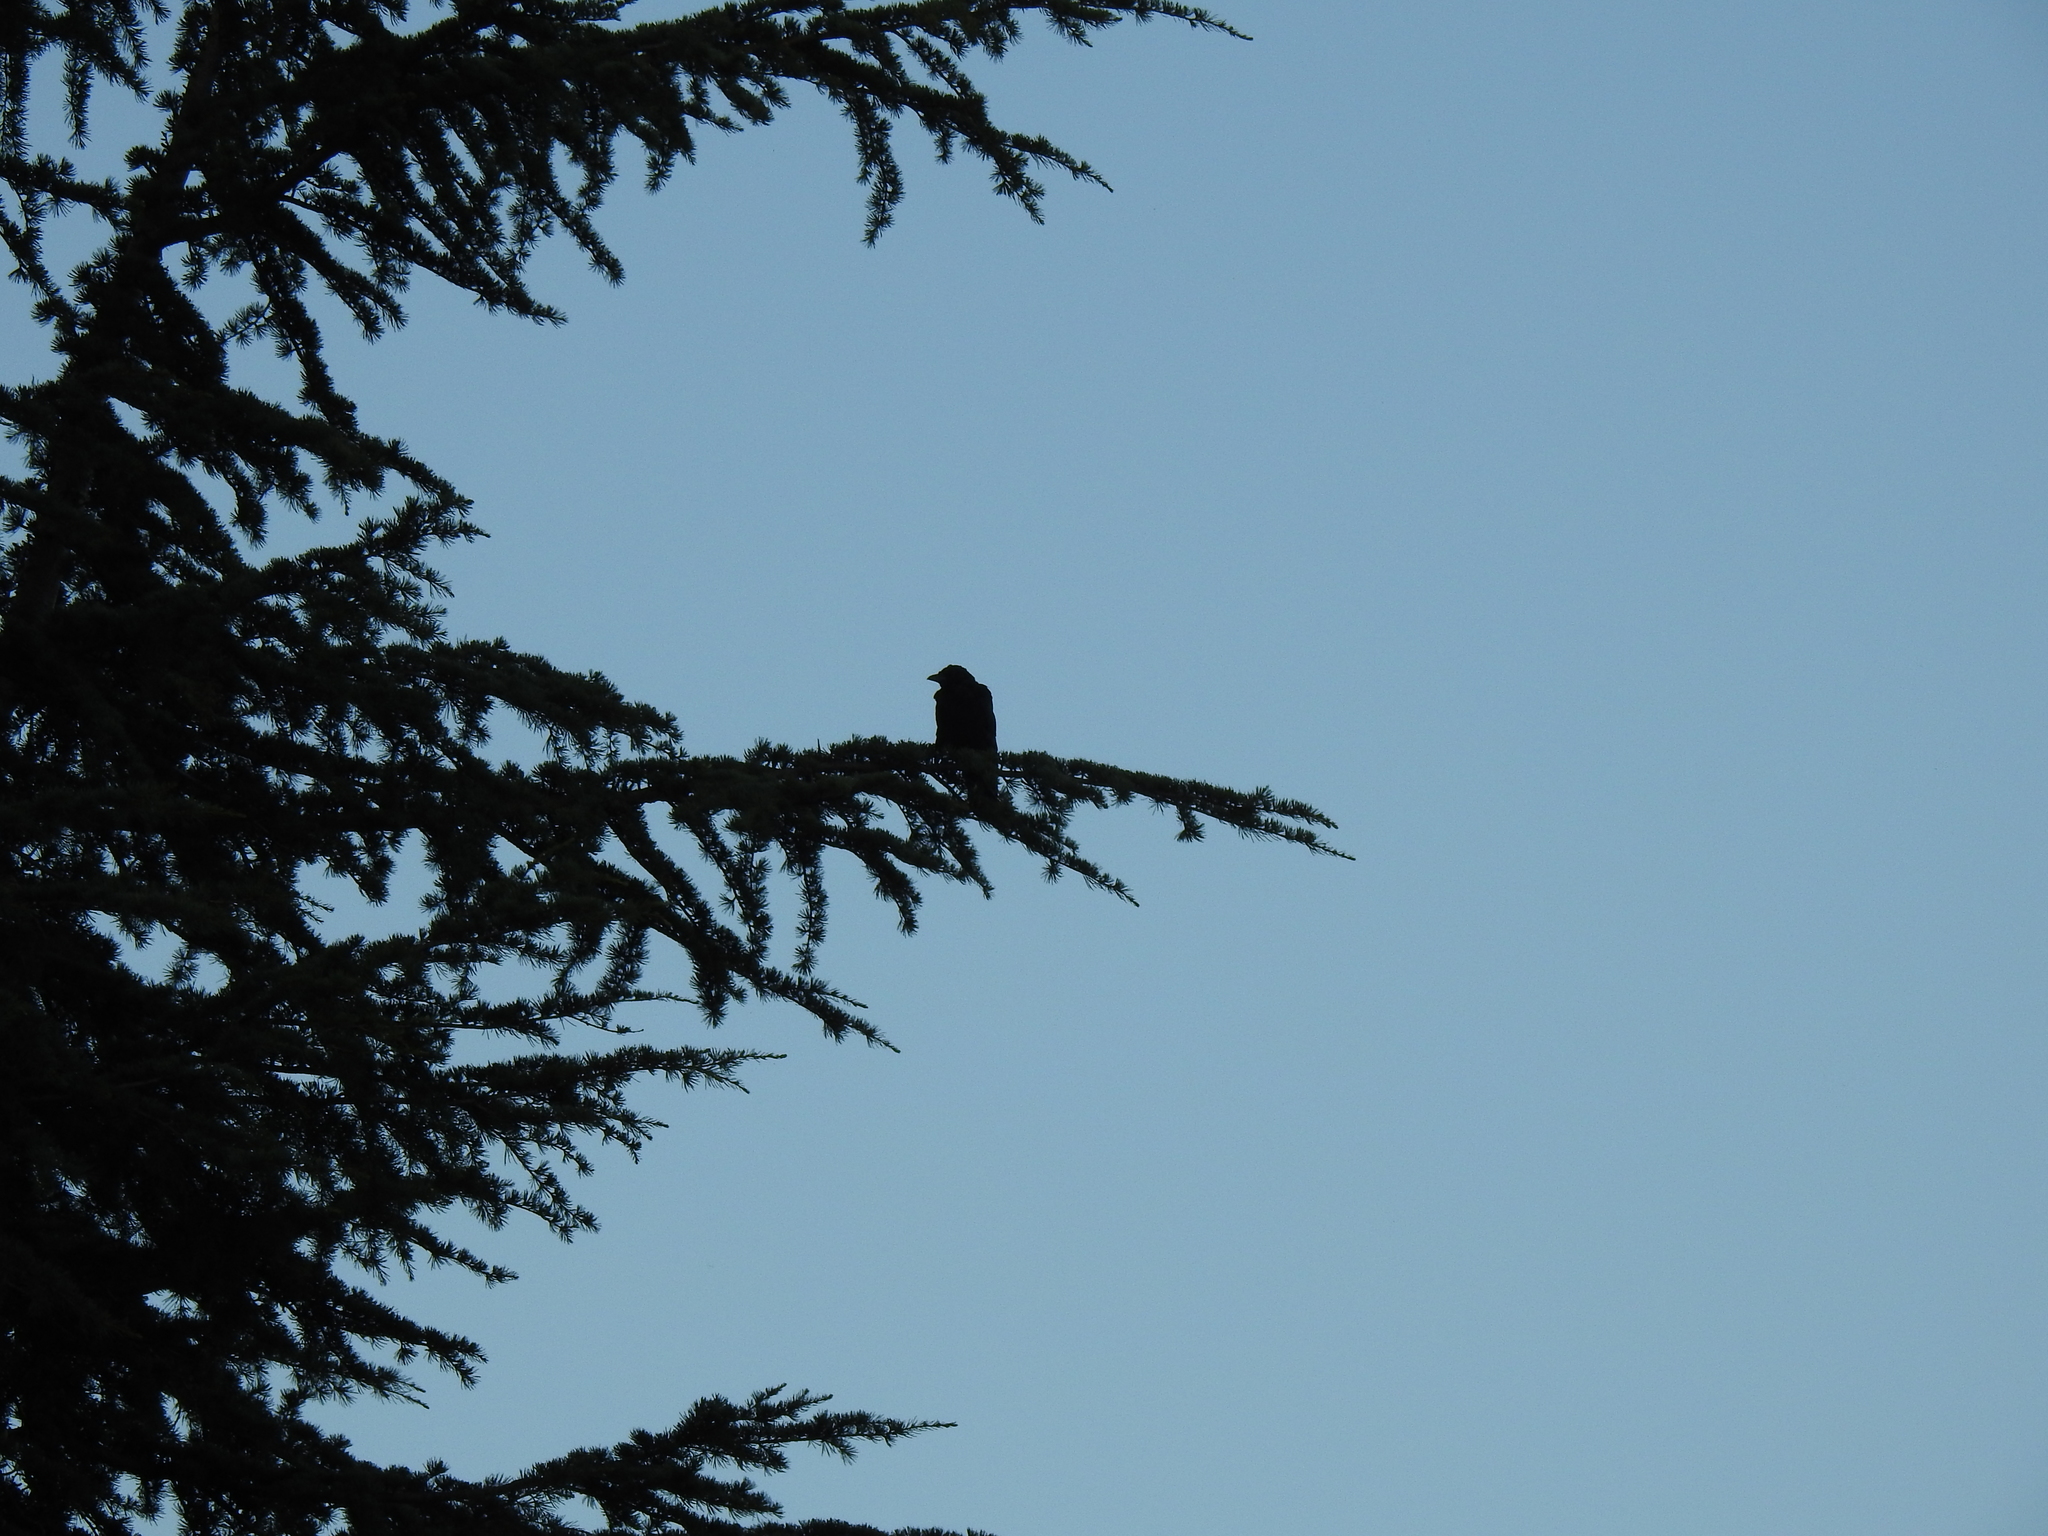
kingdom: Animalia
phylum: Chordata
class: Aves
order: Passeriformes
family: Corvidae
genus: Corvus
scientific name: Corvus brachyrhynchos
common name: American crow
